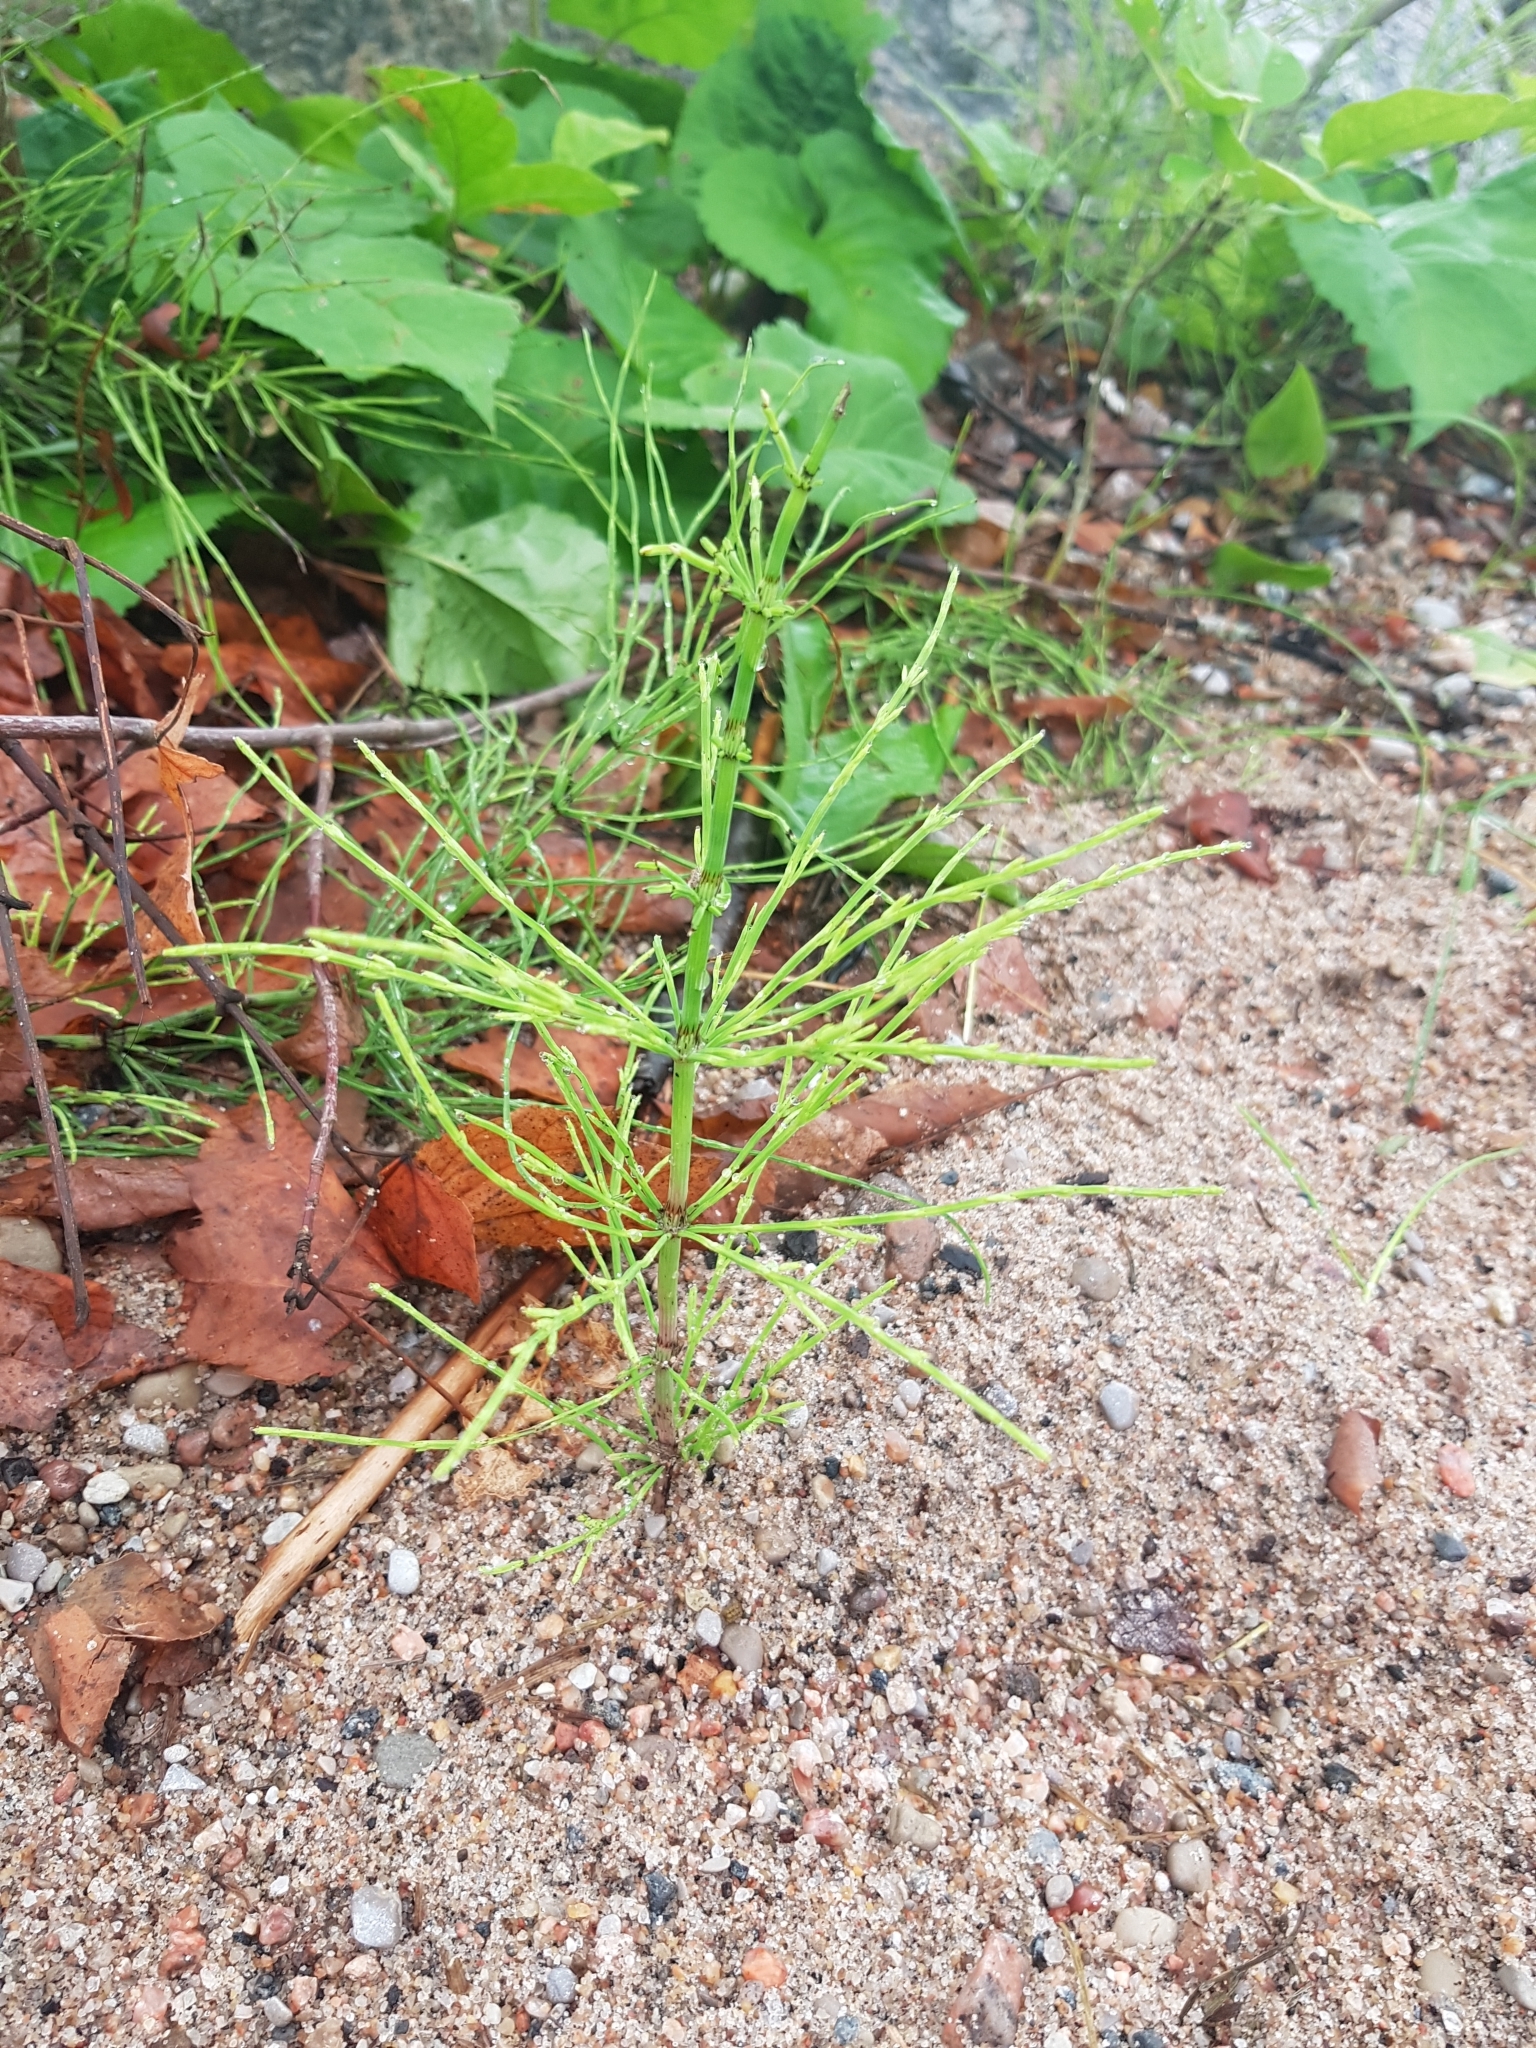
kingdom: Plantae
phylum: Tracheophyta
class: Polypodiopsida
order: Equisetales
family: Equisetaceae
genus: Equisetum
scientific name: Equisetum arvense
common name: Field horsetail
